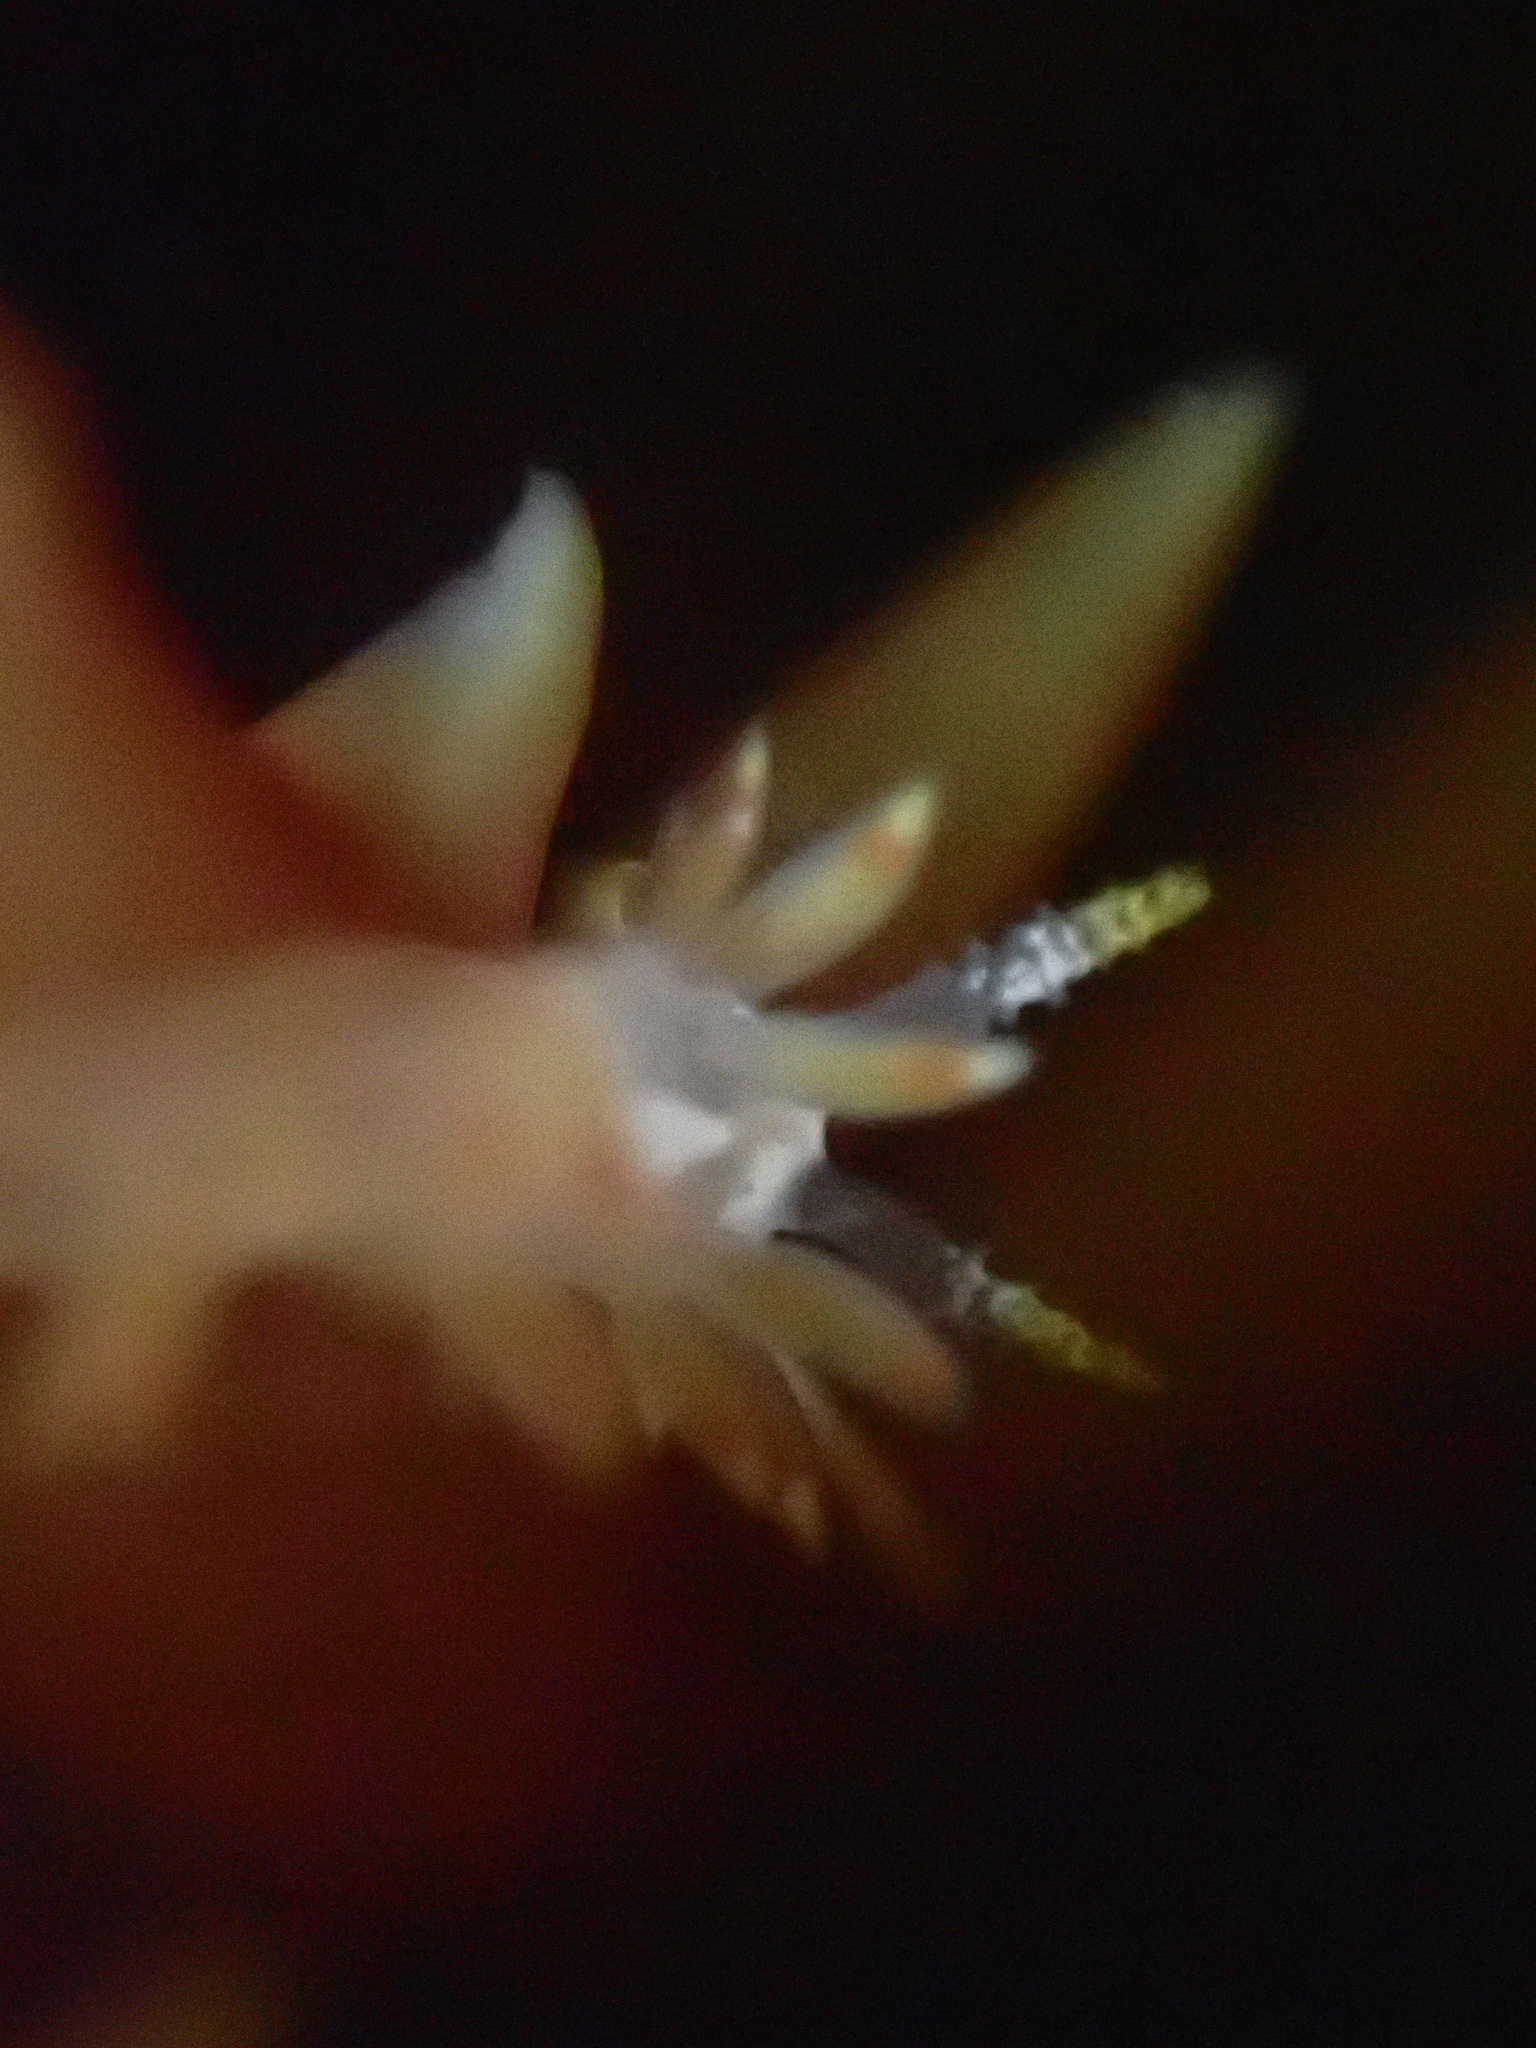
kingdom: Animalia
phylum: Mollusca
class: Gastropoda
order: Nudibranchia
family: Coryphellidae
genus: Coryphella
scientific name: Coryphella trilineata
